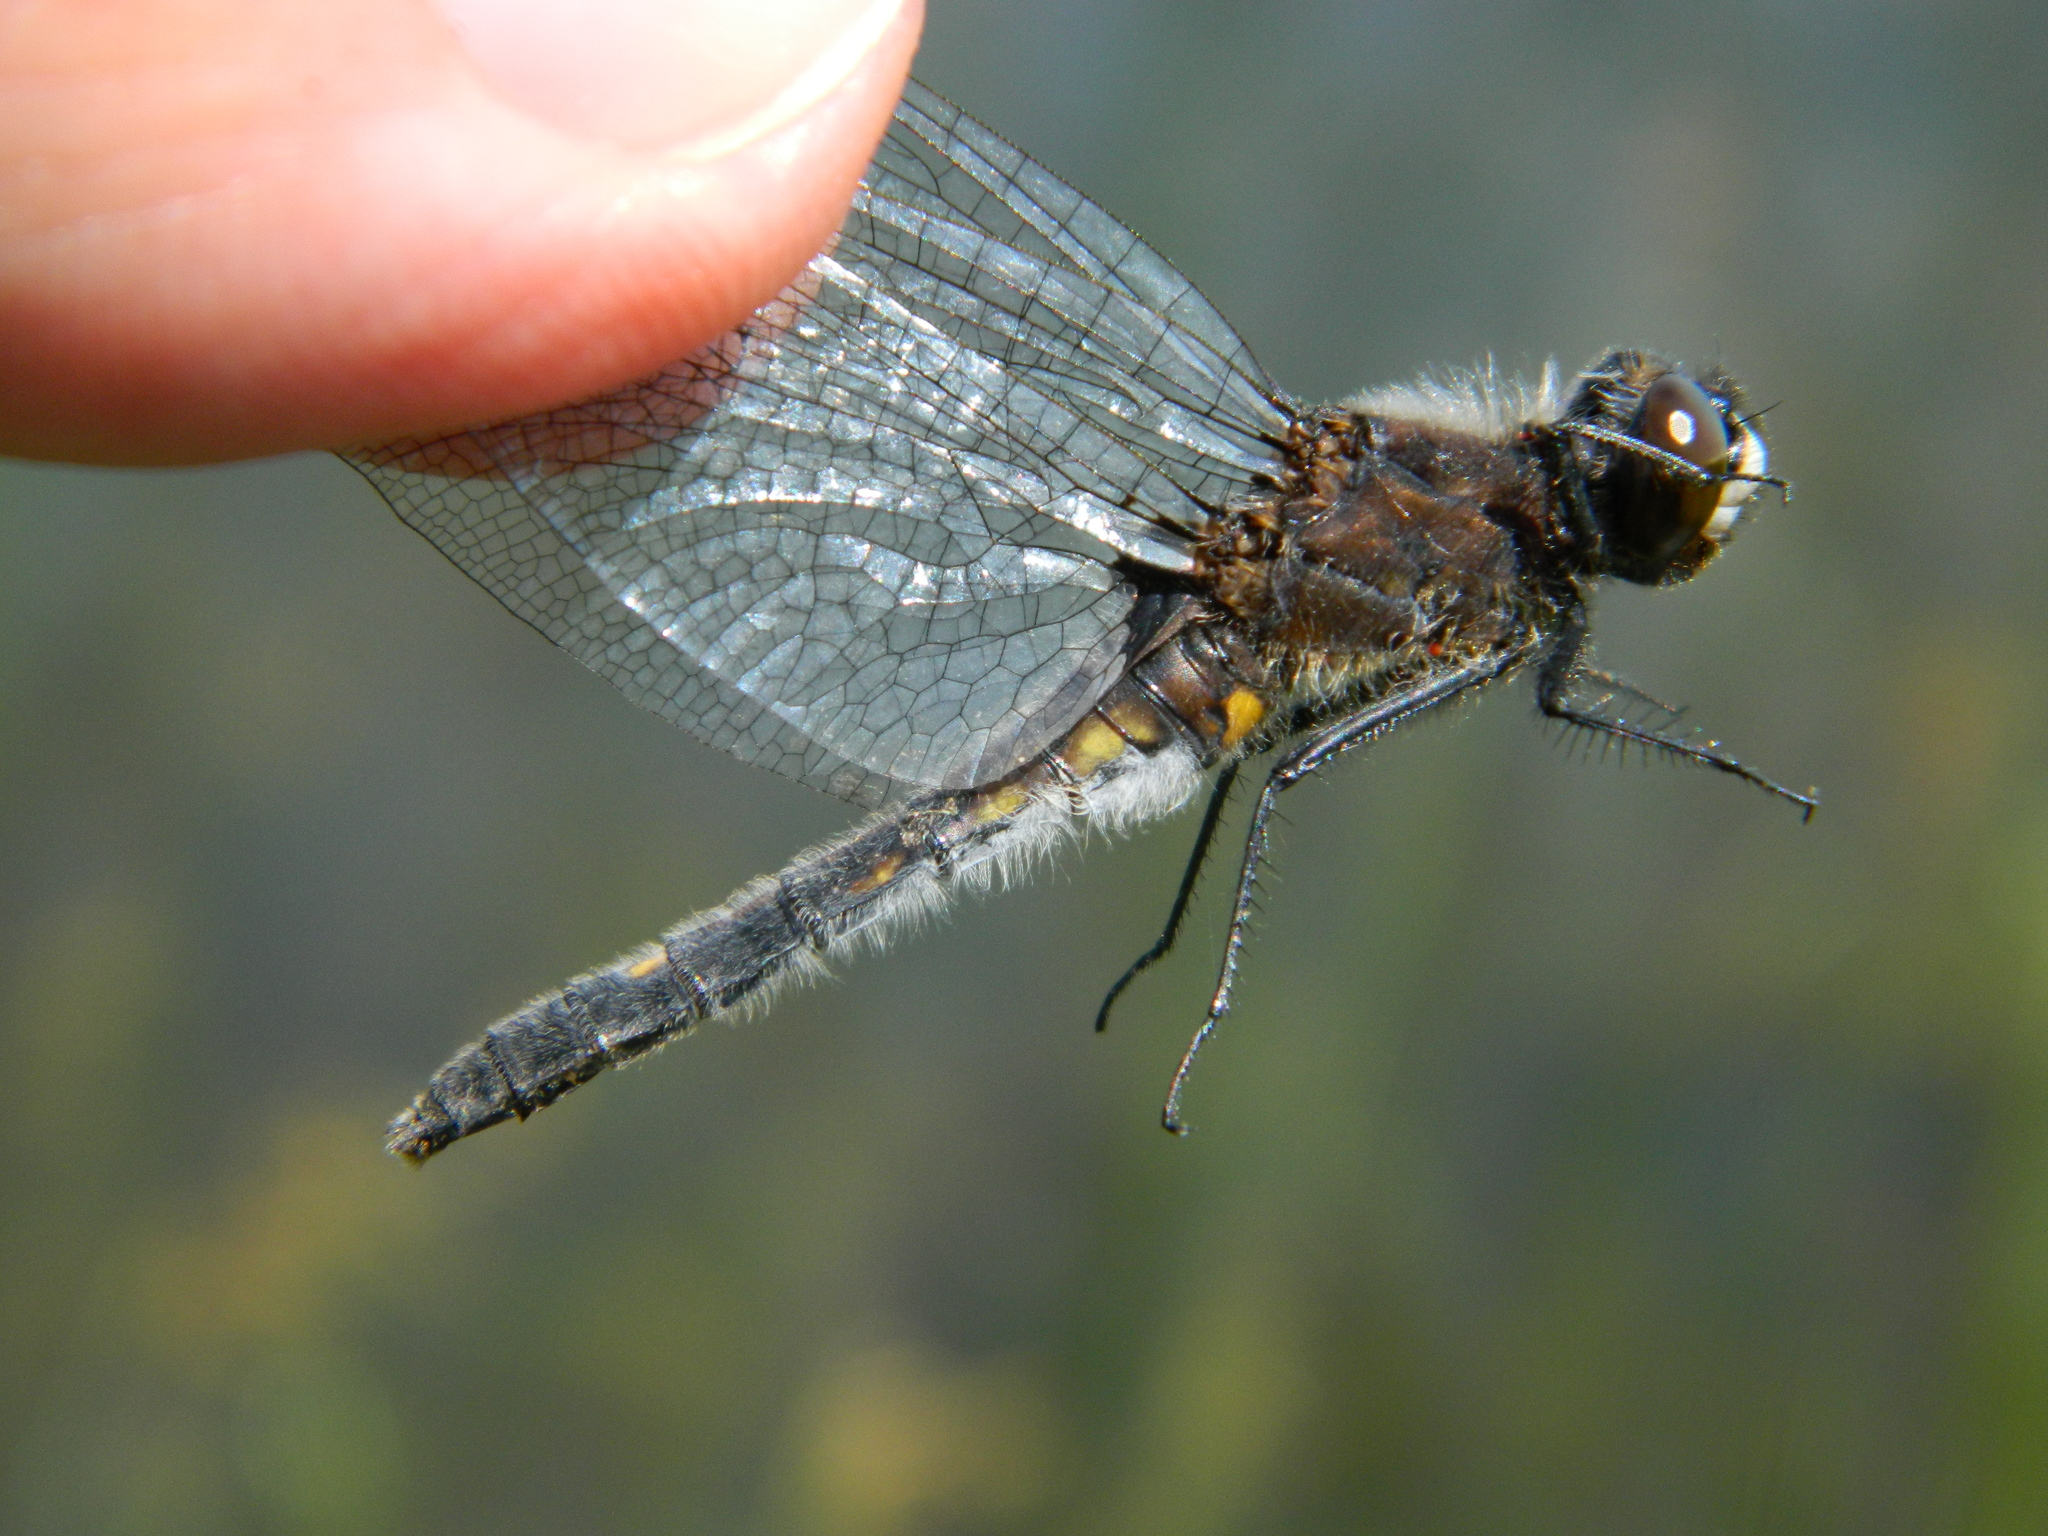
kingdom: Animalia
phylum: Arthropoda
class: Insecta
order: Odonata
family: Libellulidae
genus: Leucorrhinia
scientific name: Leucorrhinia intacta
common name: Dot-tailed whiteface
